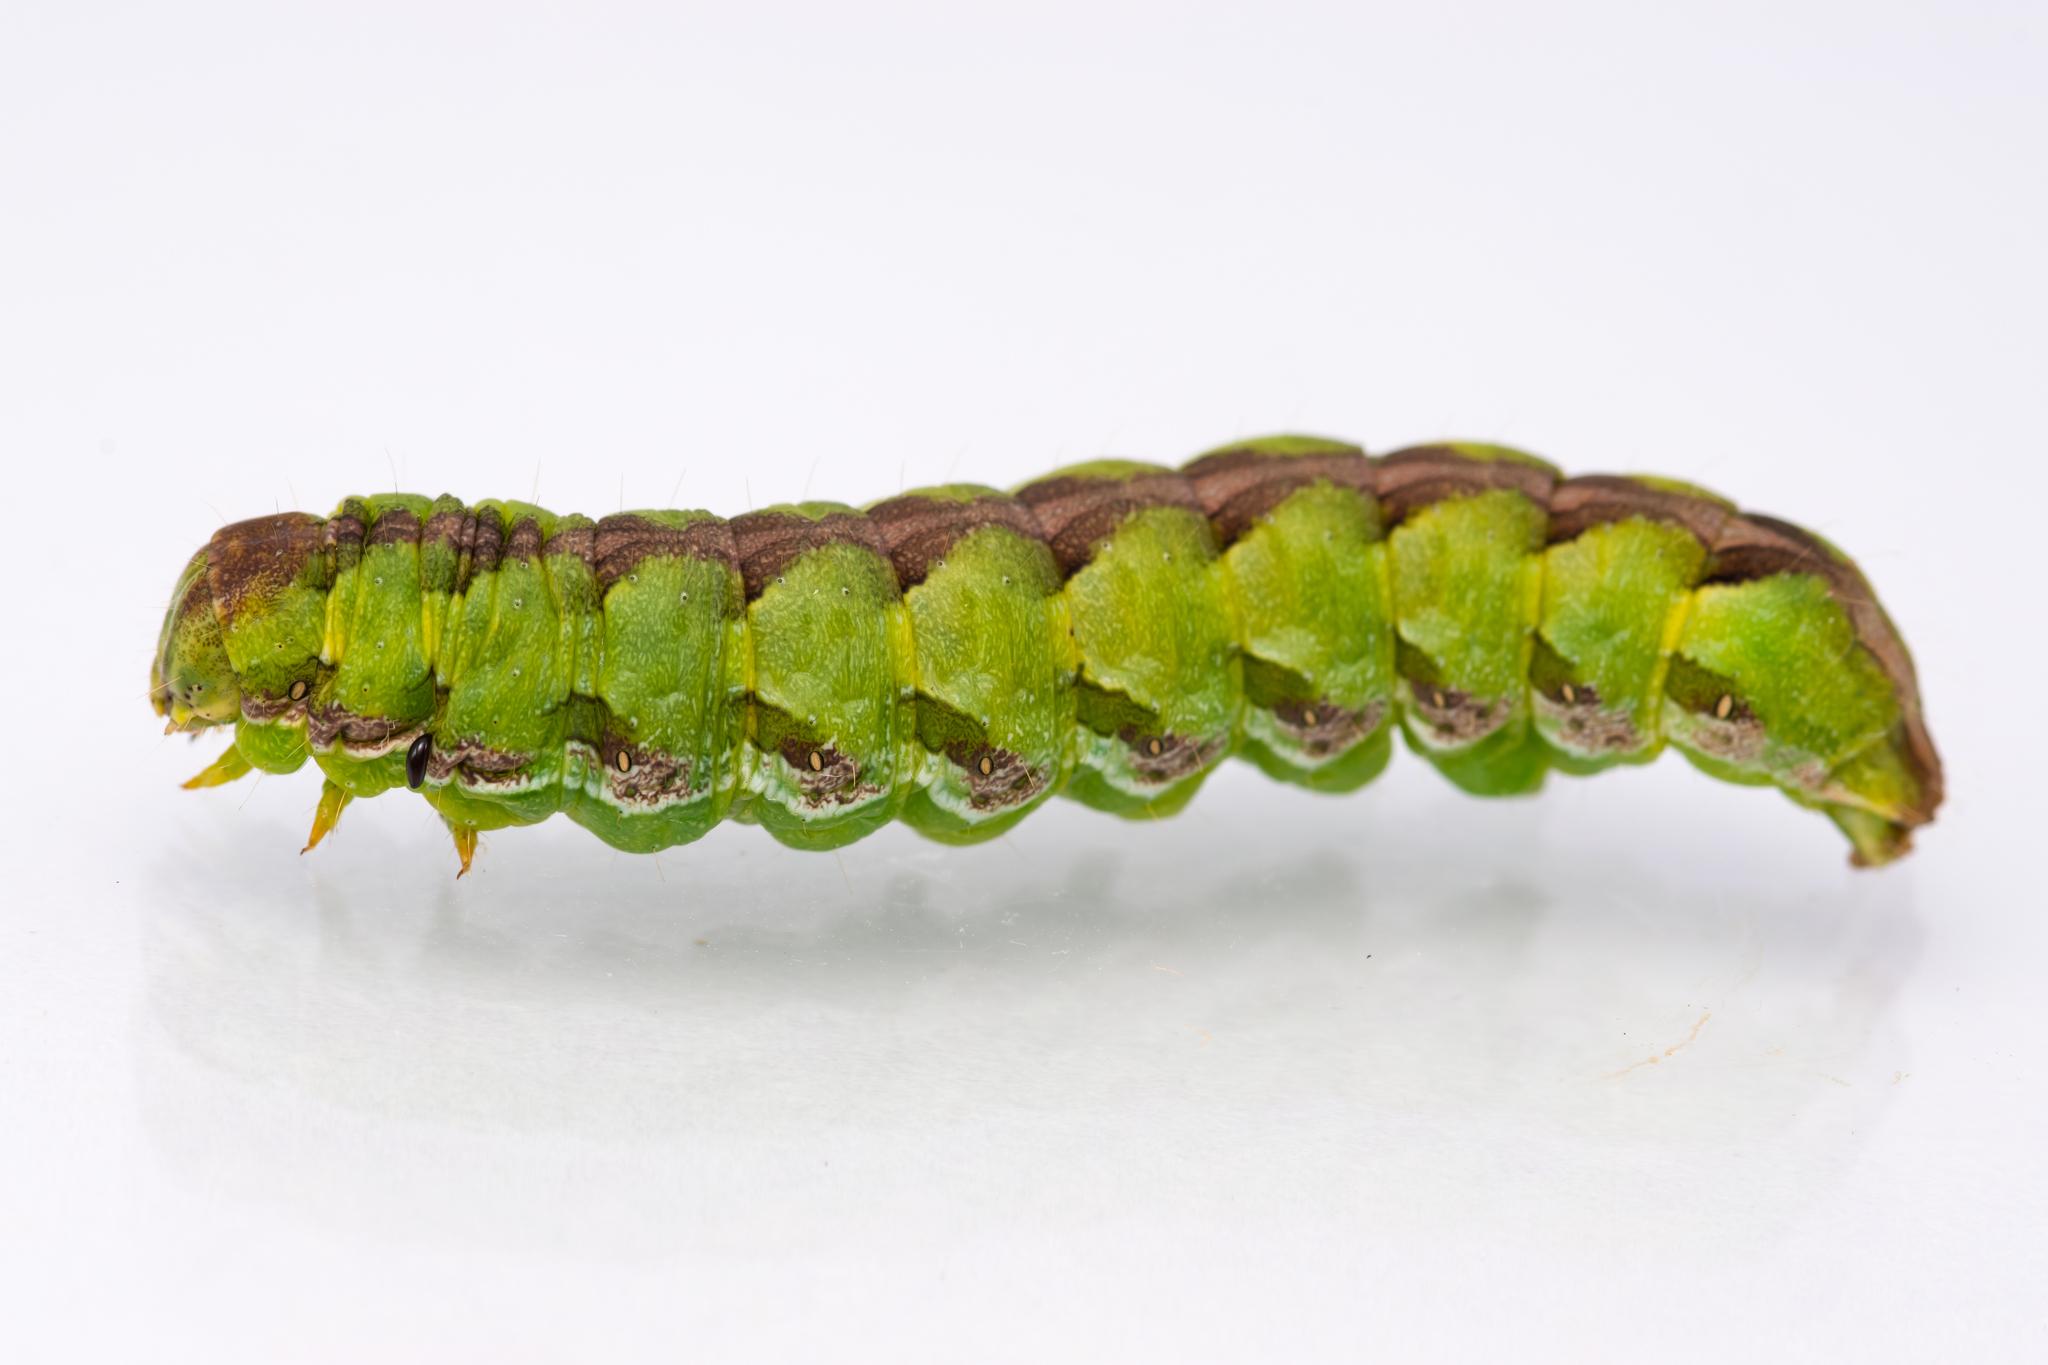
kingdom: Animalia
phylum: Arthropoda
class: Insecta
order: Lepidoptera
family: Noctuidae
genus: Cucullia
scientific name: Cucullia calendulae
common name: Marigold shark
